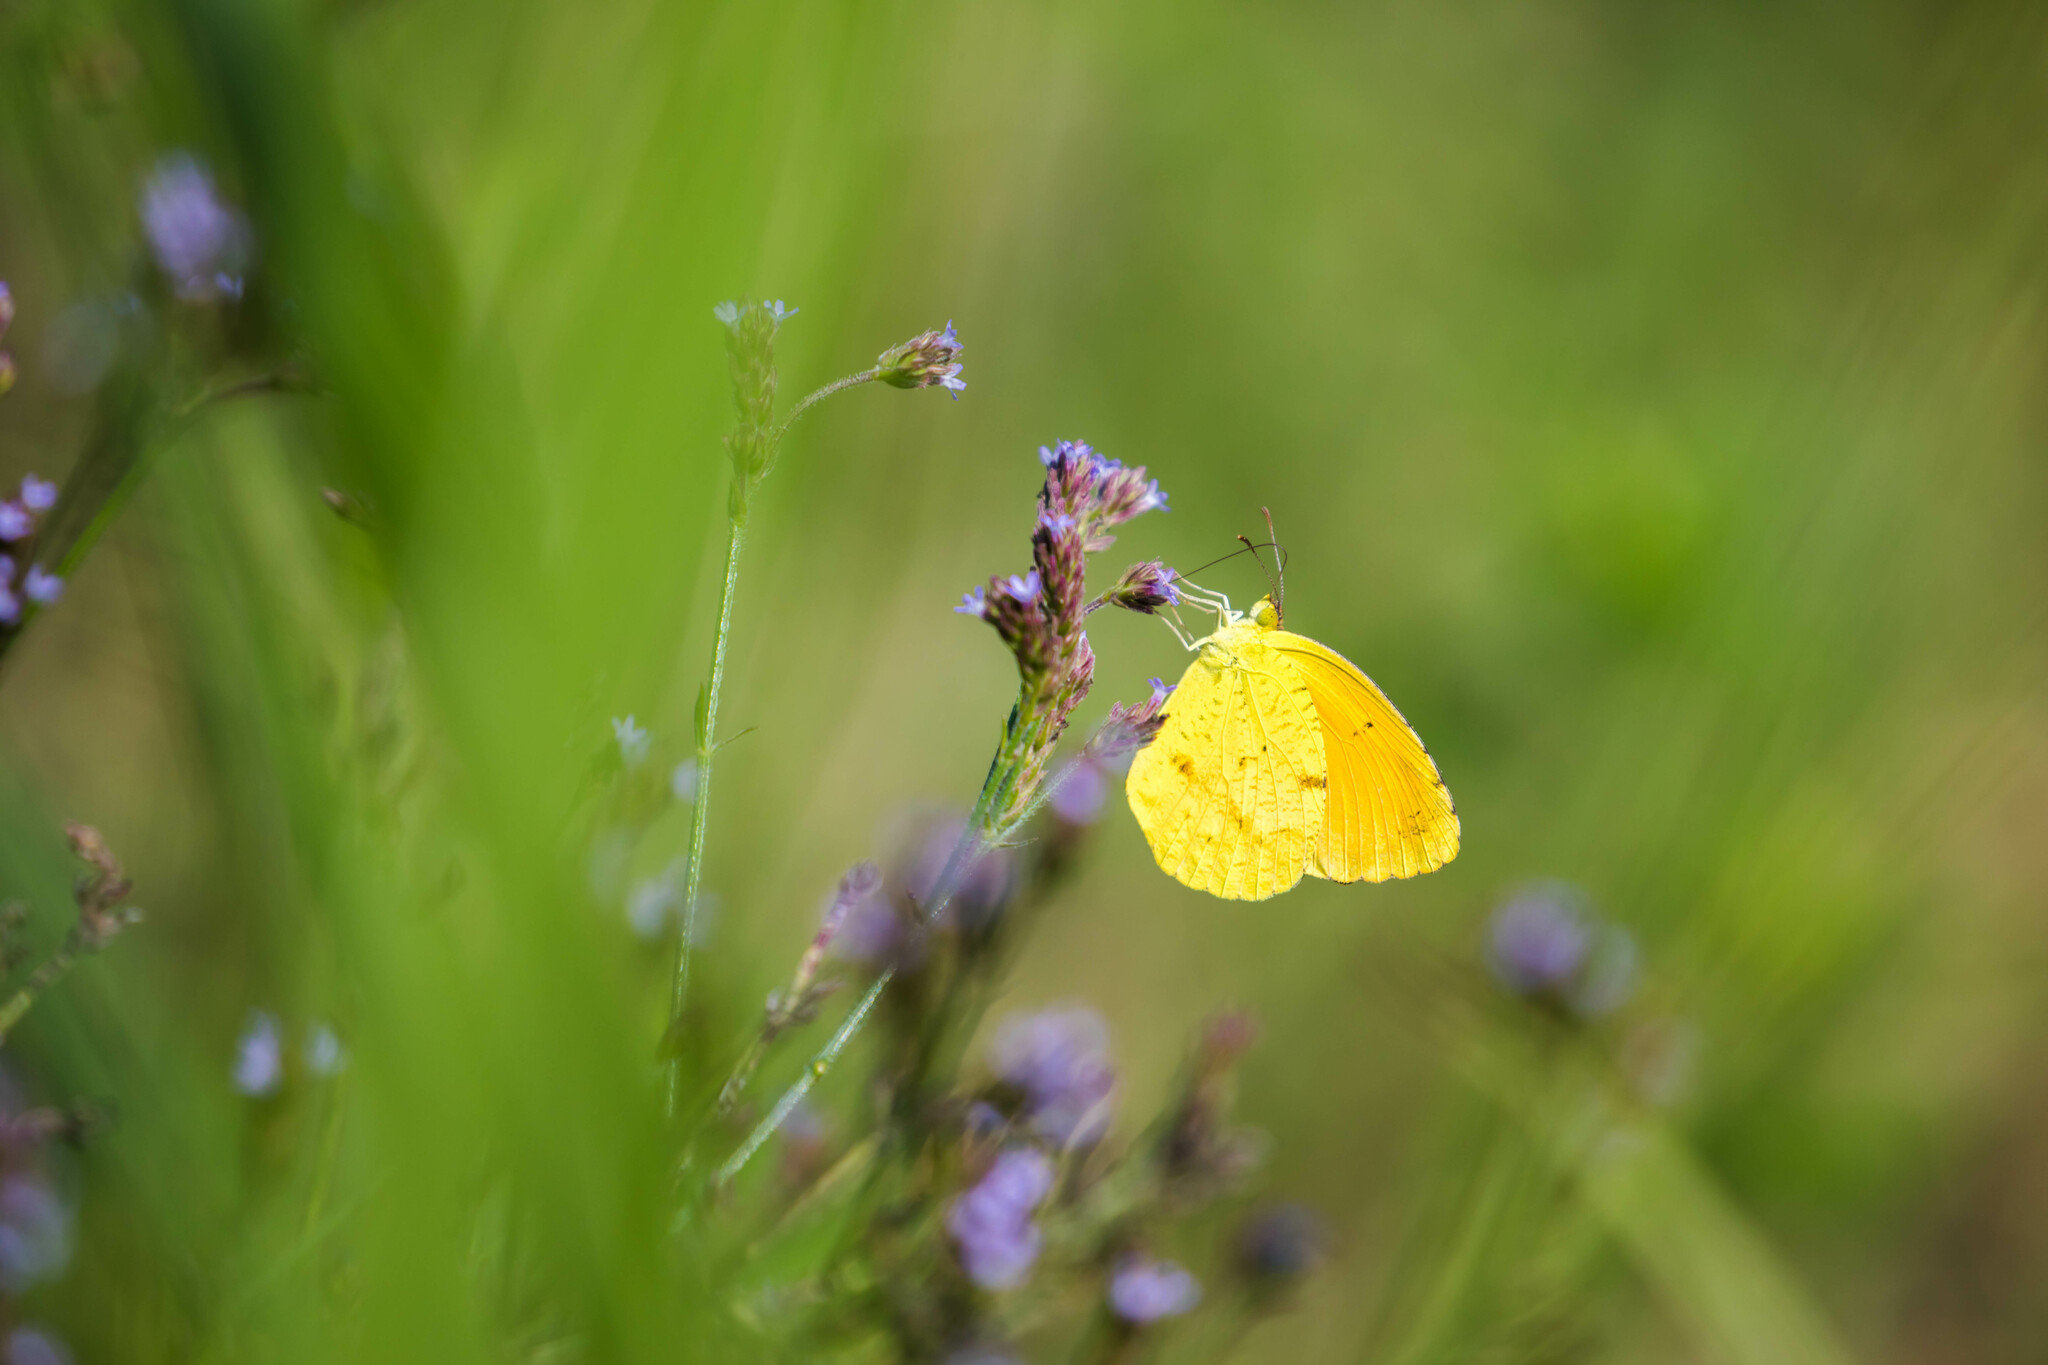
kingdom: Animalia
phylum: Arthropoda
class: Insecta
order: Lepidoptera
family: Pieridae
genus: Abaeis
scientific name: Abaeis nicippe
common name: Sleepy orange
